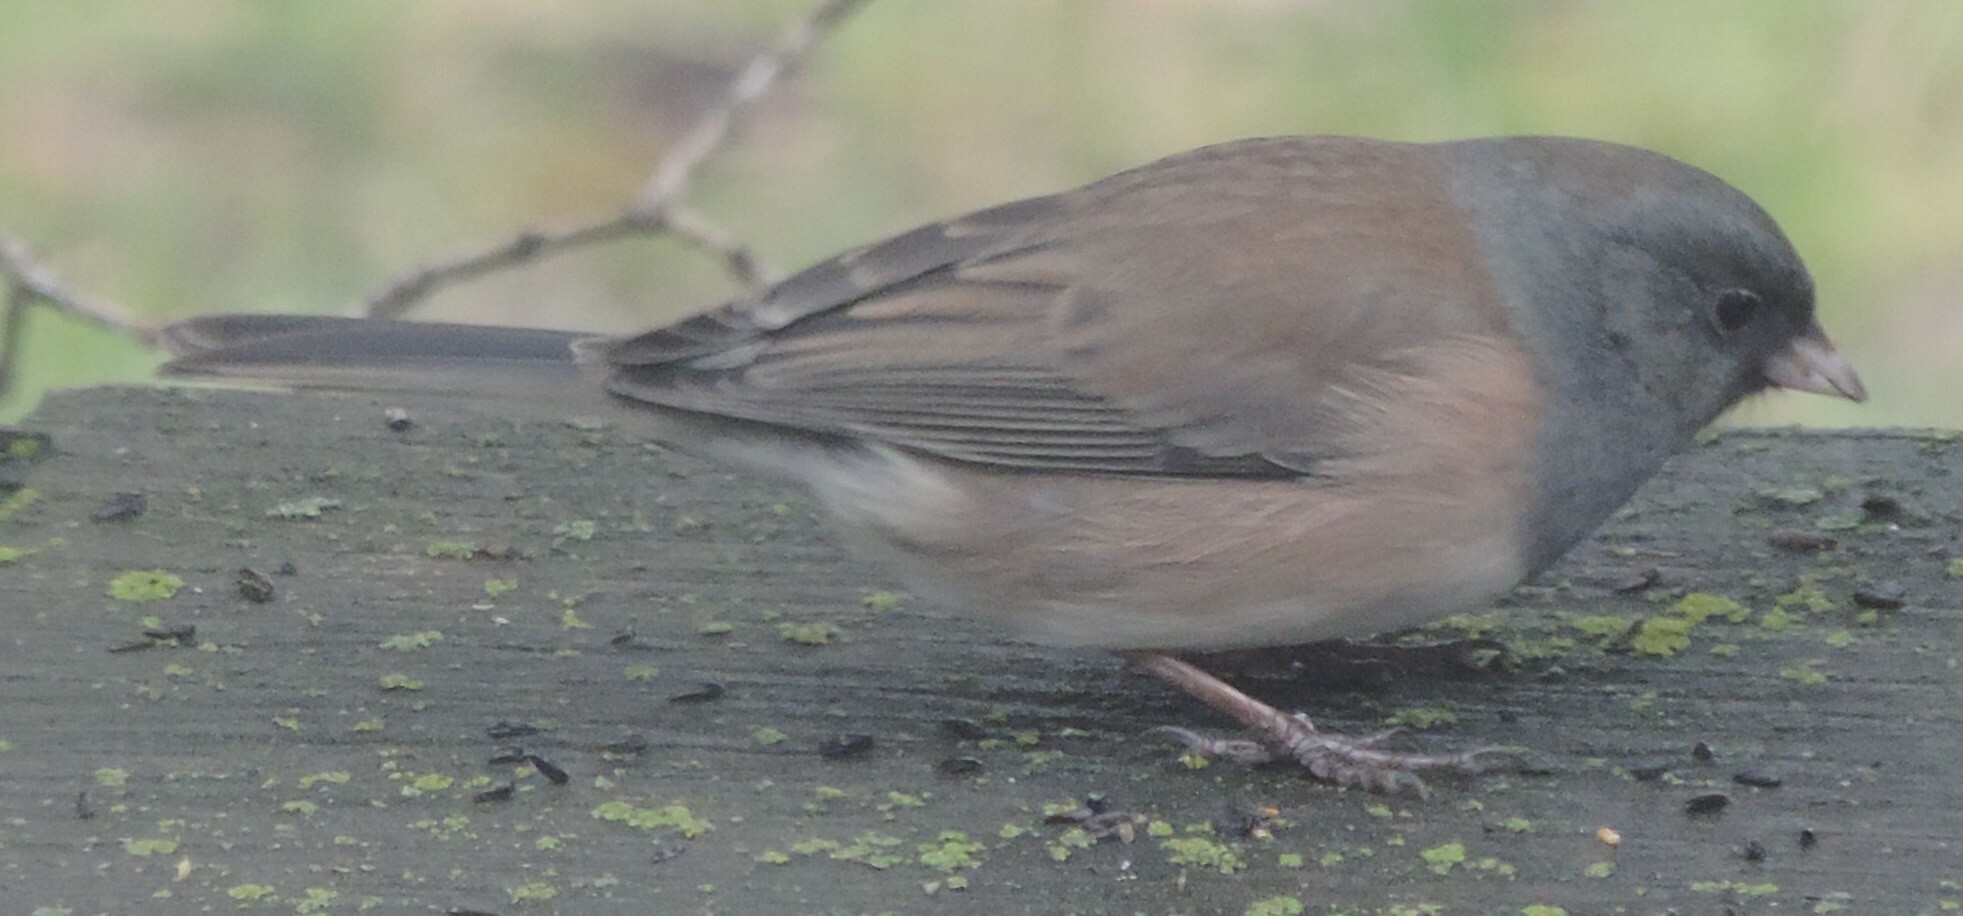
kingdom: Animalia
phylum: Chordata
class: Aves
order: Passeriformes
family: Passerellidae
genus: Junco
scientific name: Junco hyemalis
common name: Dark-eyed junco
